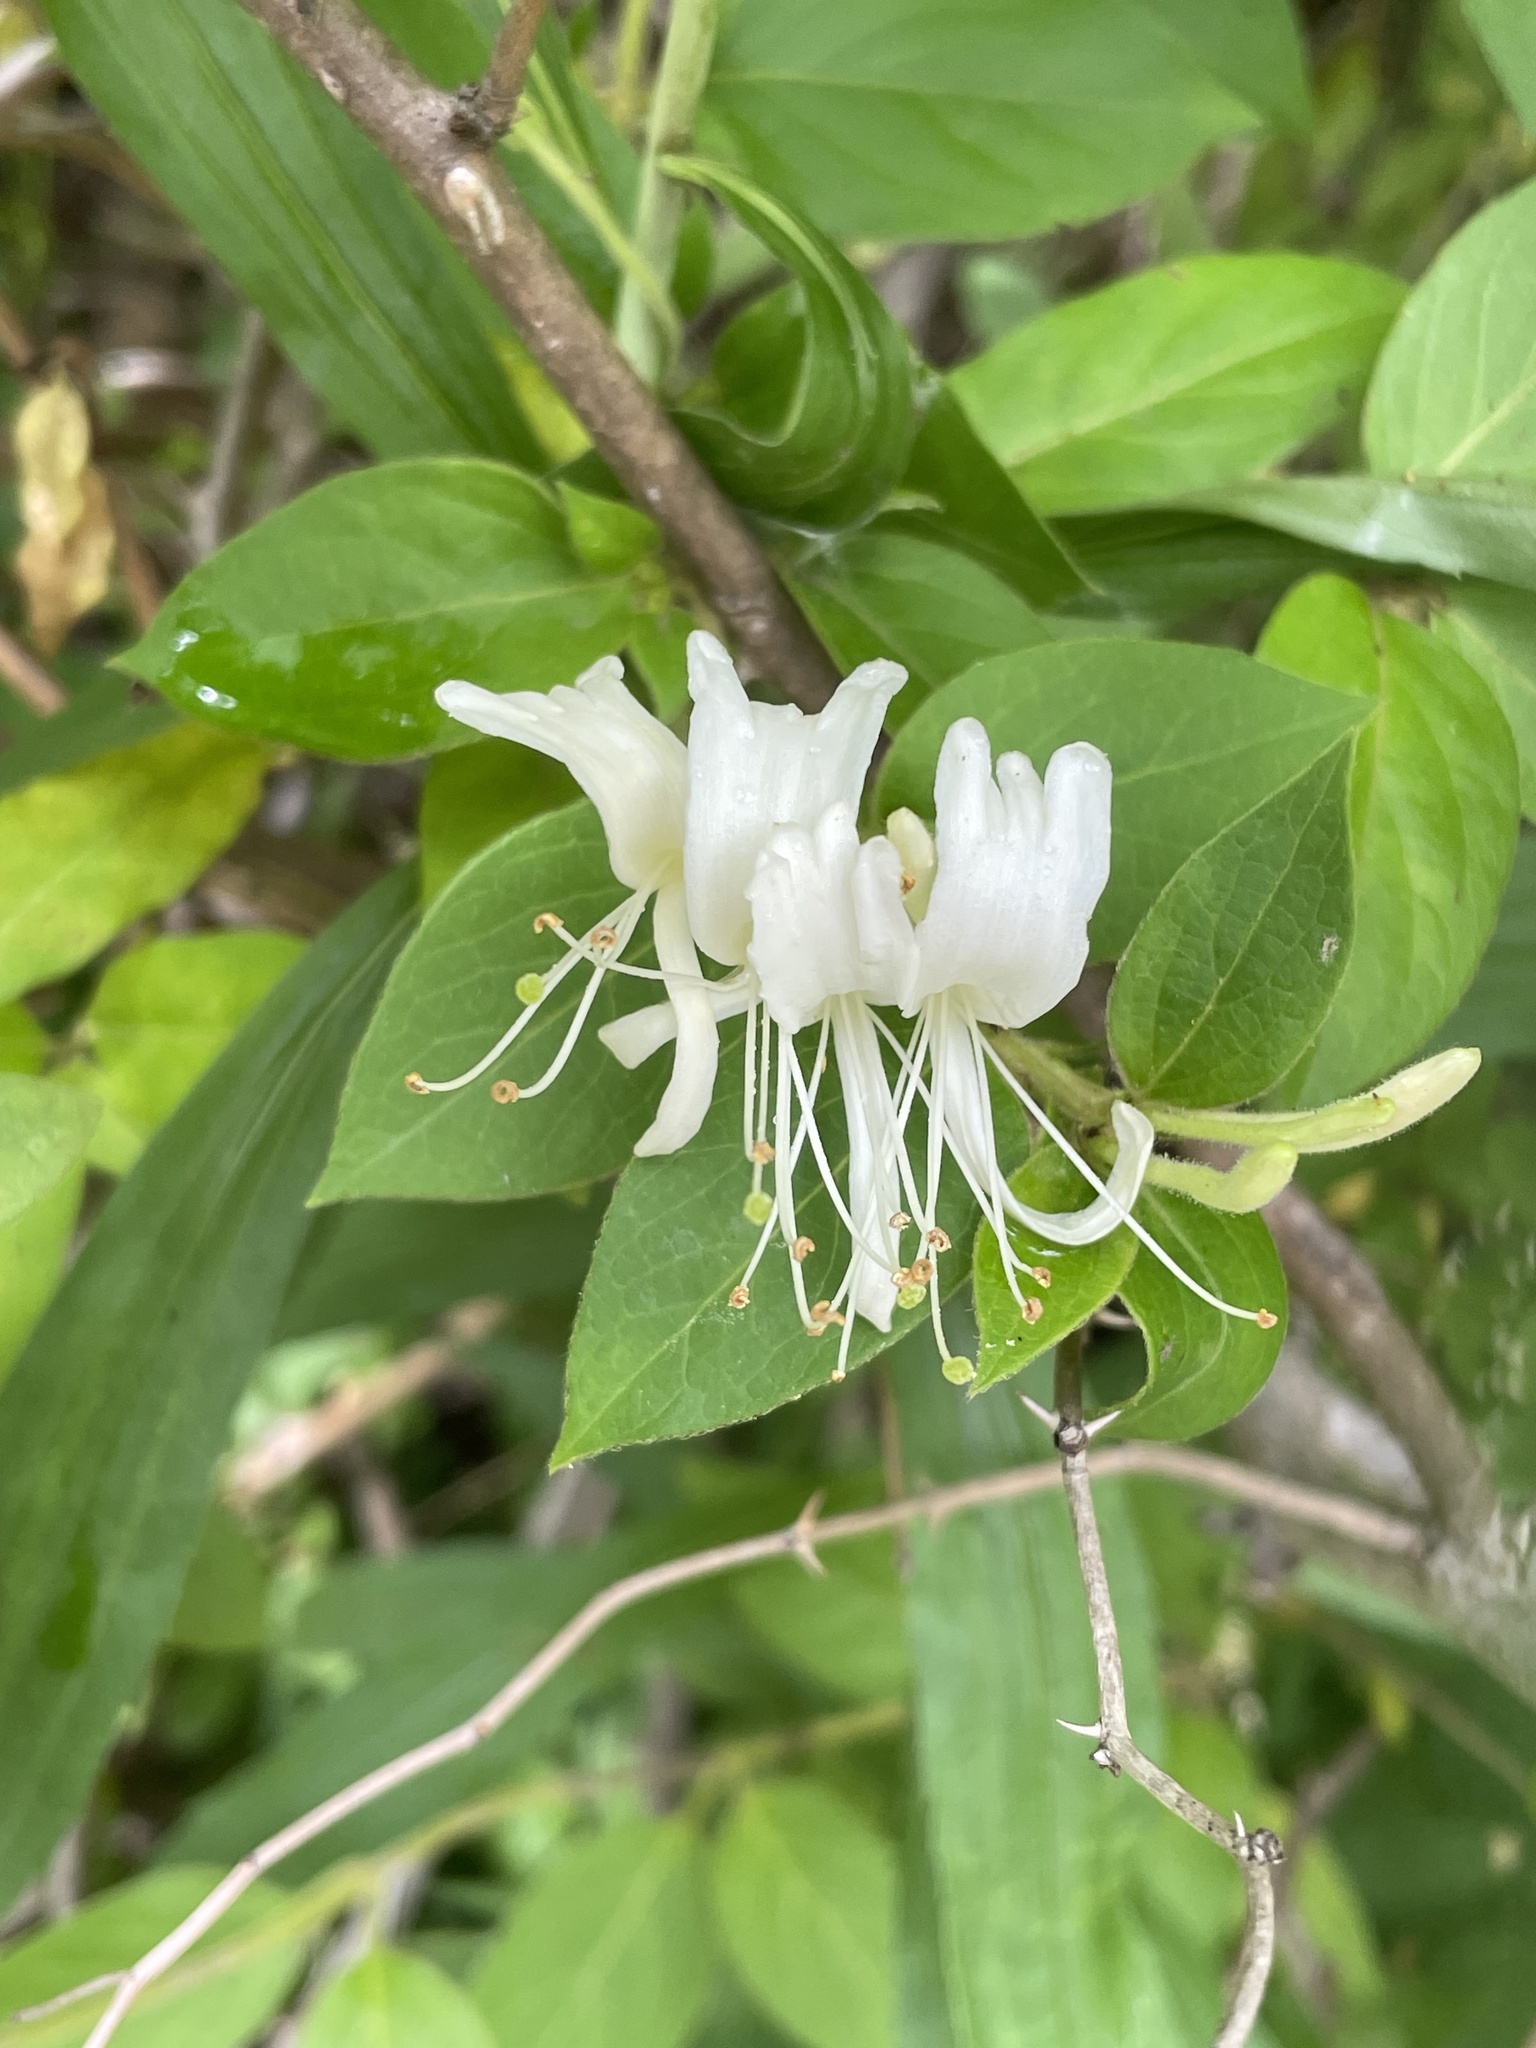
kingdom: Plantae
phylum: Tracheophyta
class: Magnoliopsida
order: Dipsacales
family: Caprifoliaceae
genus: Lonicera
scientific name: Lonicera japonica
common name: Japanese honeysuckle
